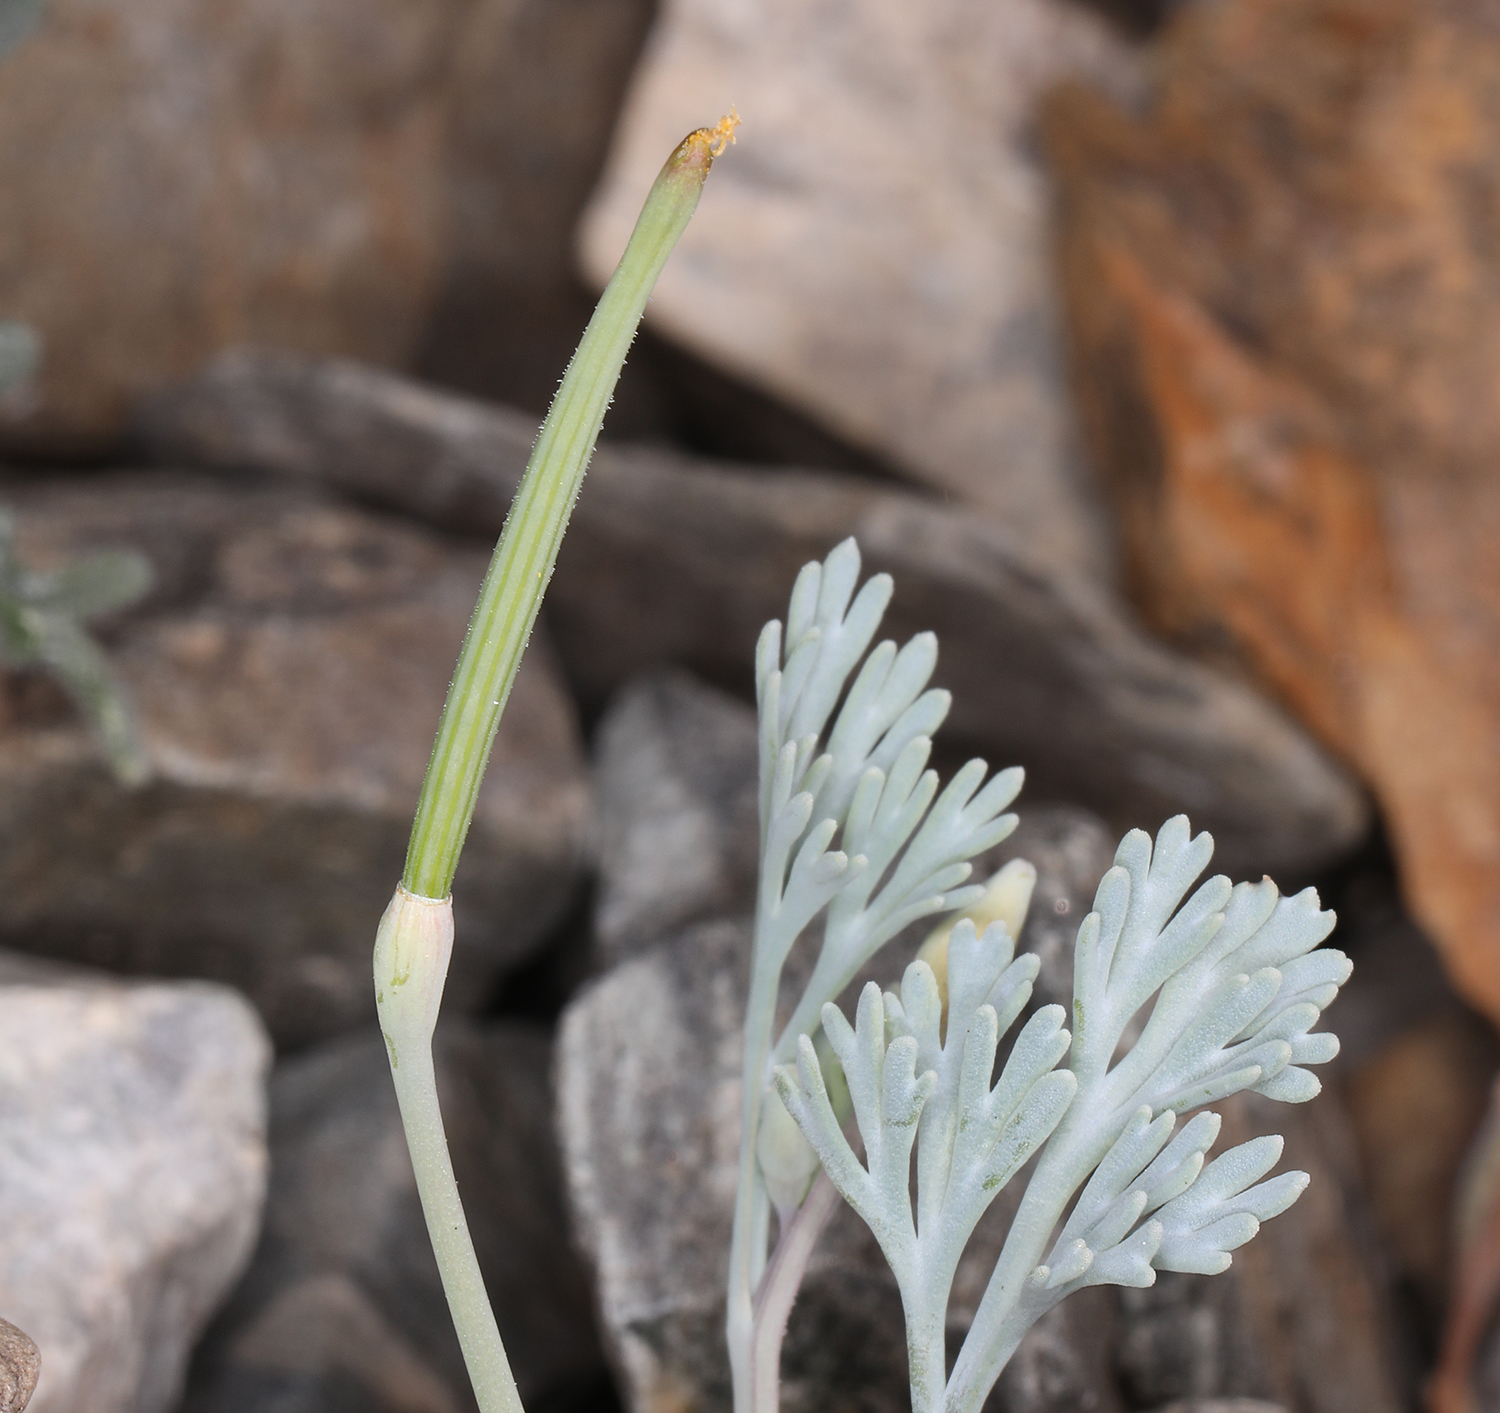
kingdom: Plantae
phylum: Tracheophyta
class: Magnoliopsida
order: Ranunculales
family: Papaveraceae
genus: Eschscholzia
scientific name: Eschscholzia minutiflora
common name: Small-flower california-poppy
